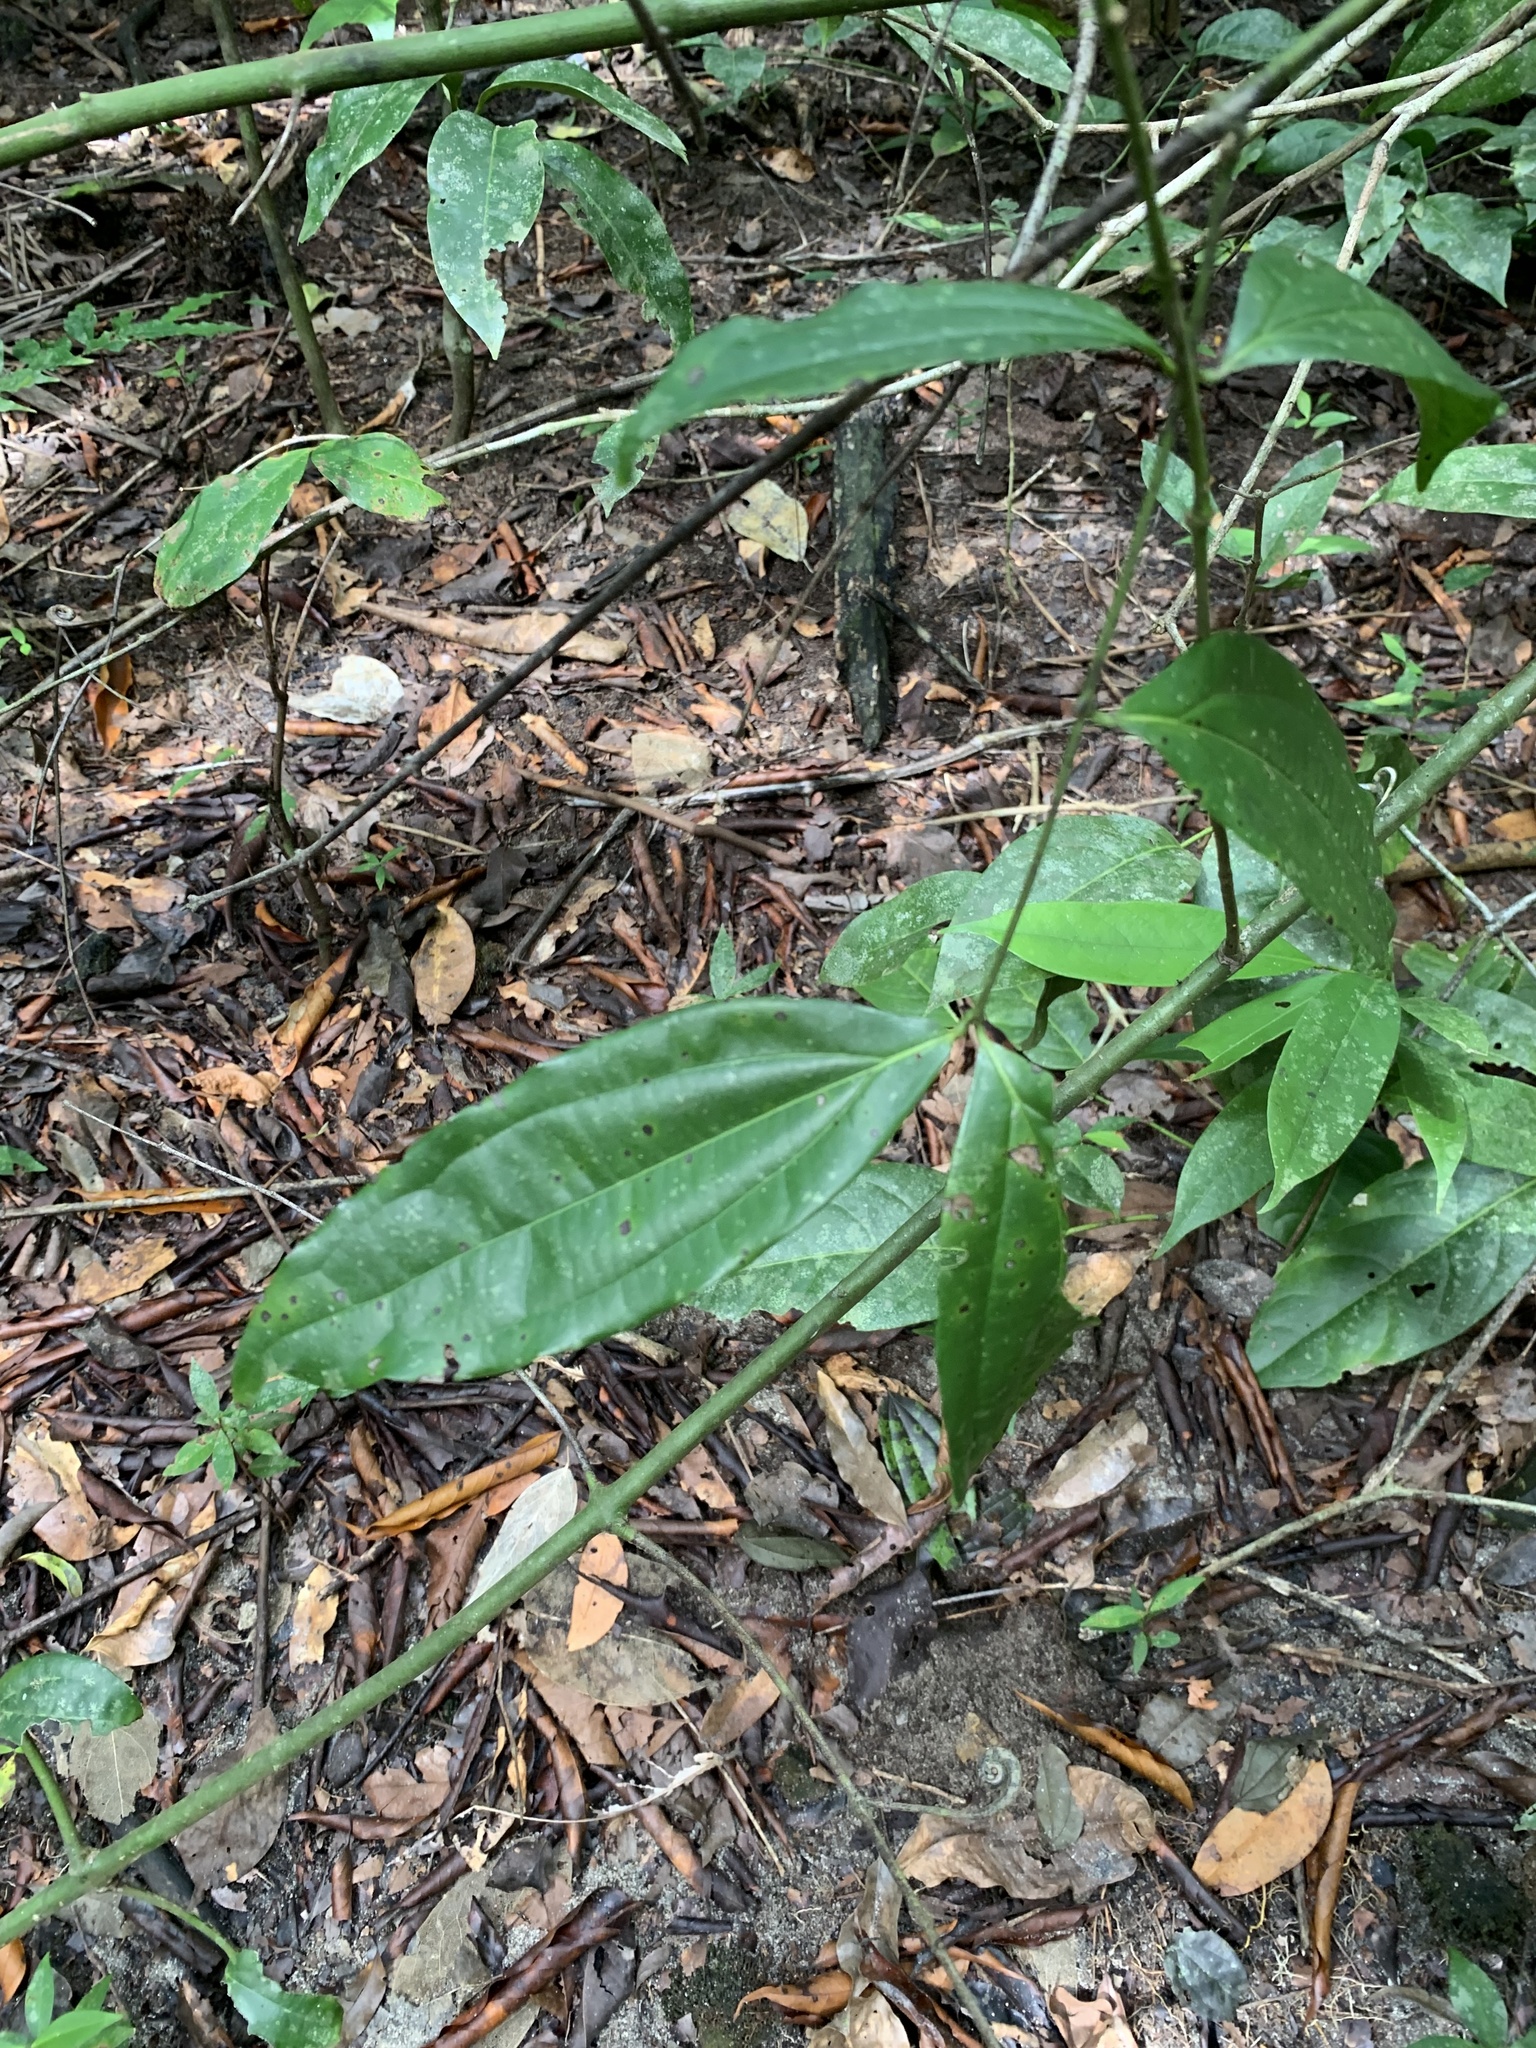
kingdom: Plantae
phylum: Tracheophyta
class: Magnoliopsida
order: Gentianales
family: Loganiaceae
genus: Strychnos
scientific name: Strychnos panamensis
